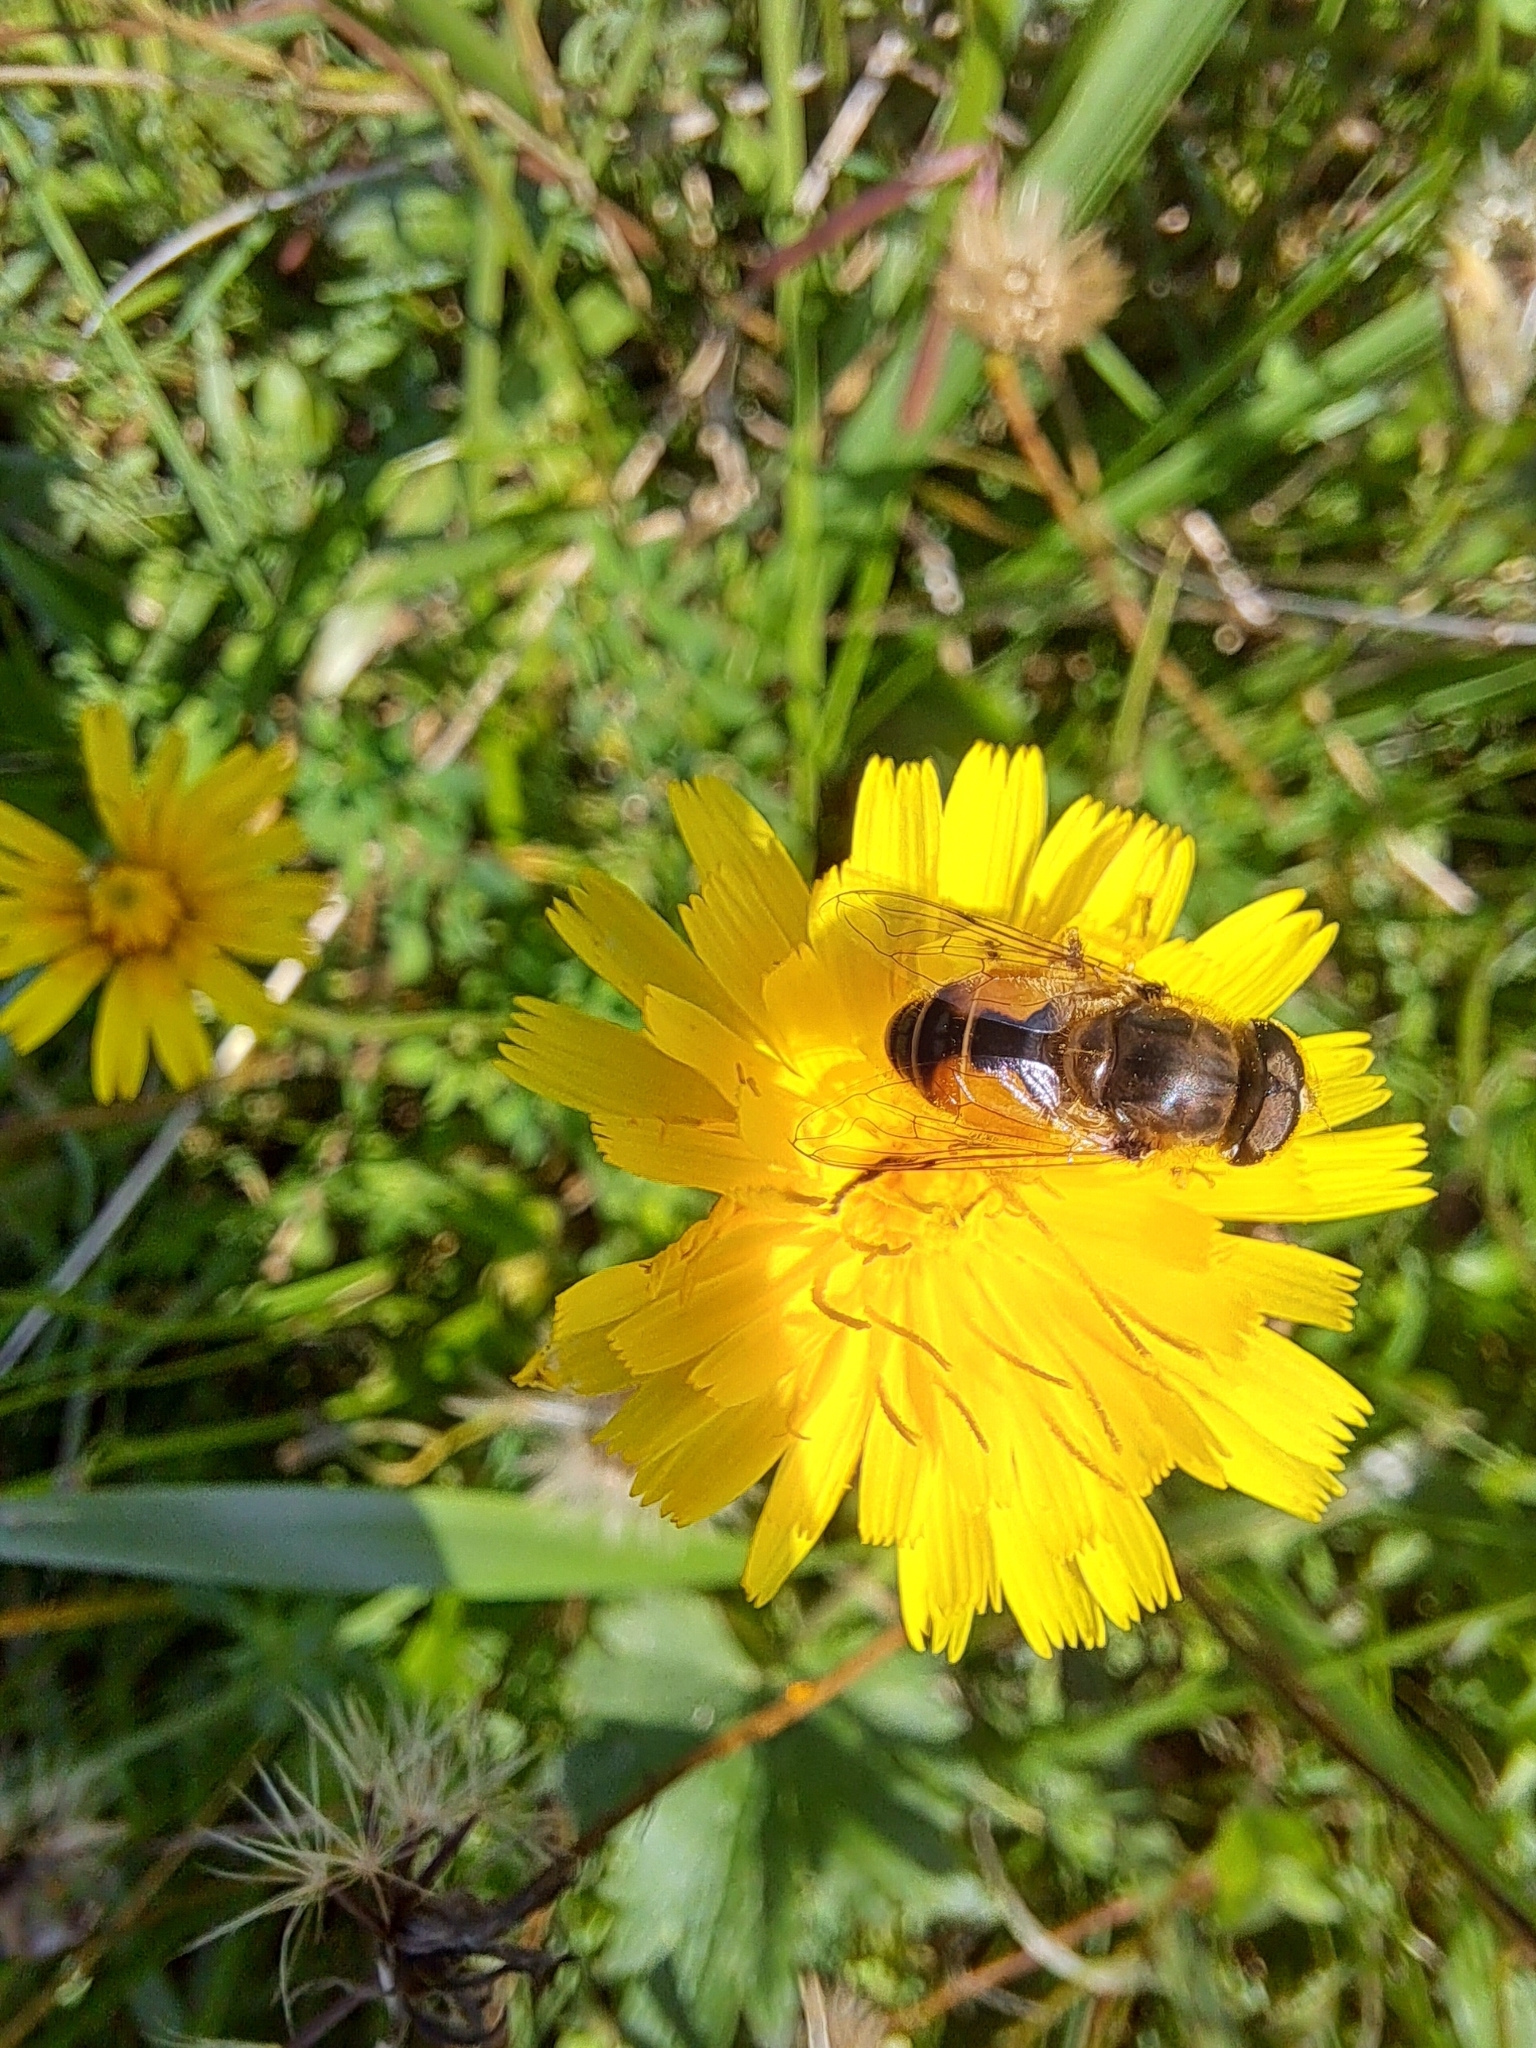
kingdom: Animalia
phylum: Arthropoda
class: Insecta
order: Diptera
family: Syrphidae
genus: Eristalis
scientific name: Eristalis arbustorum
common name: Hover fly
